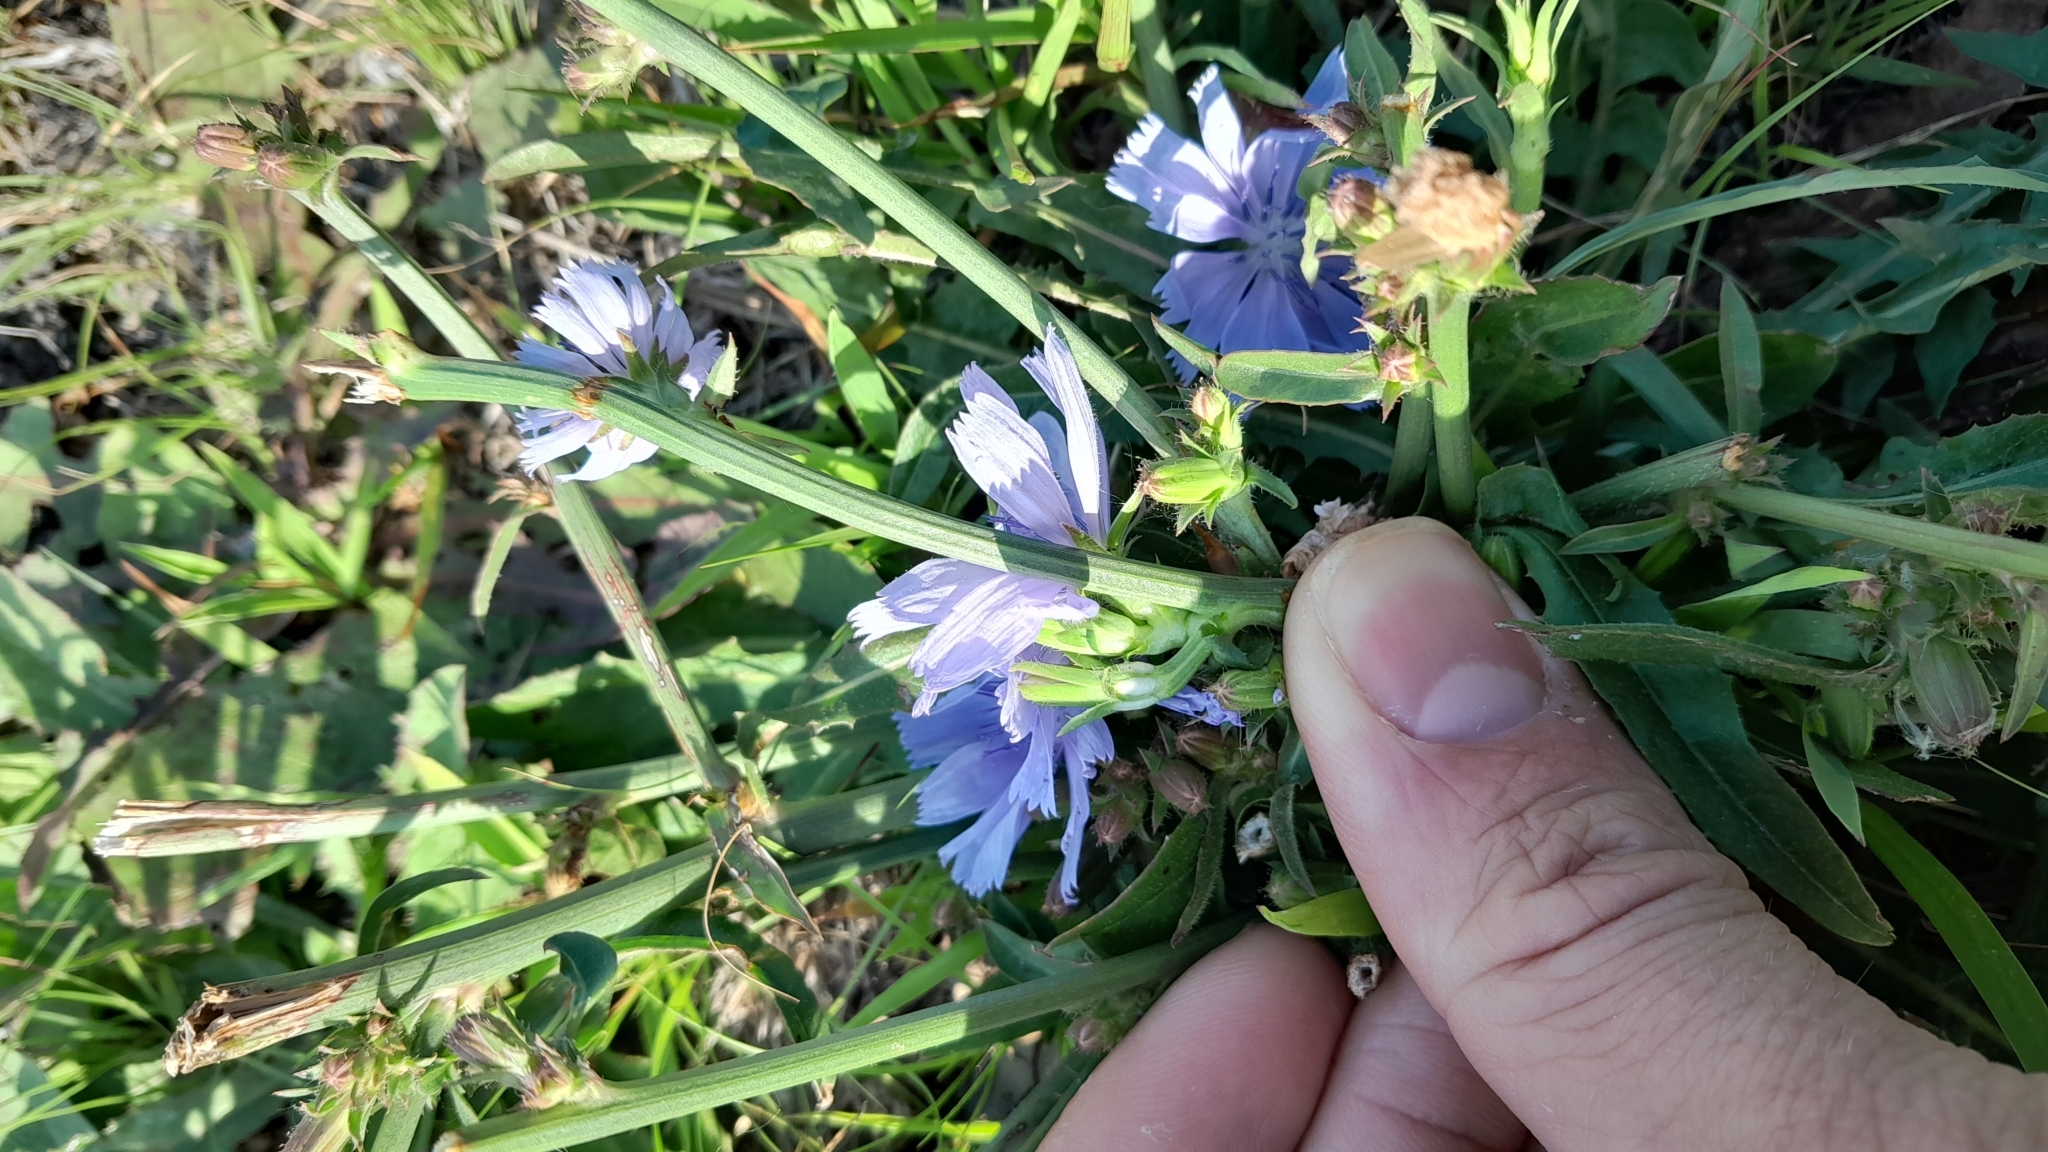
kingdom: Plantae
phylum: Tracheophyta
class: Magnoliopsida
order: Asterales
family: Asteraceae
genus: Cichorium
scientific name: Cichorium intybus
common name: Chicory
